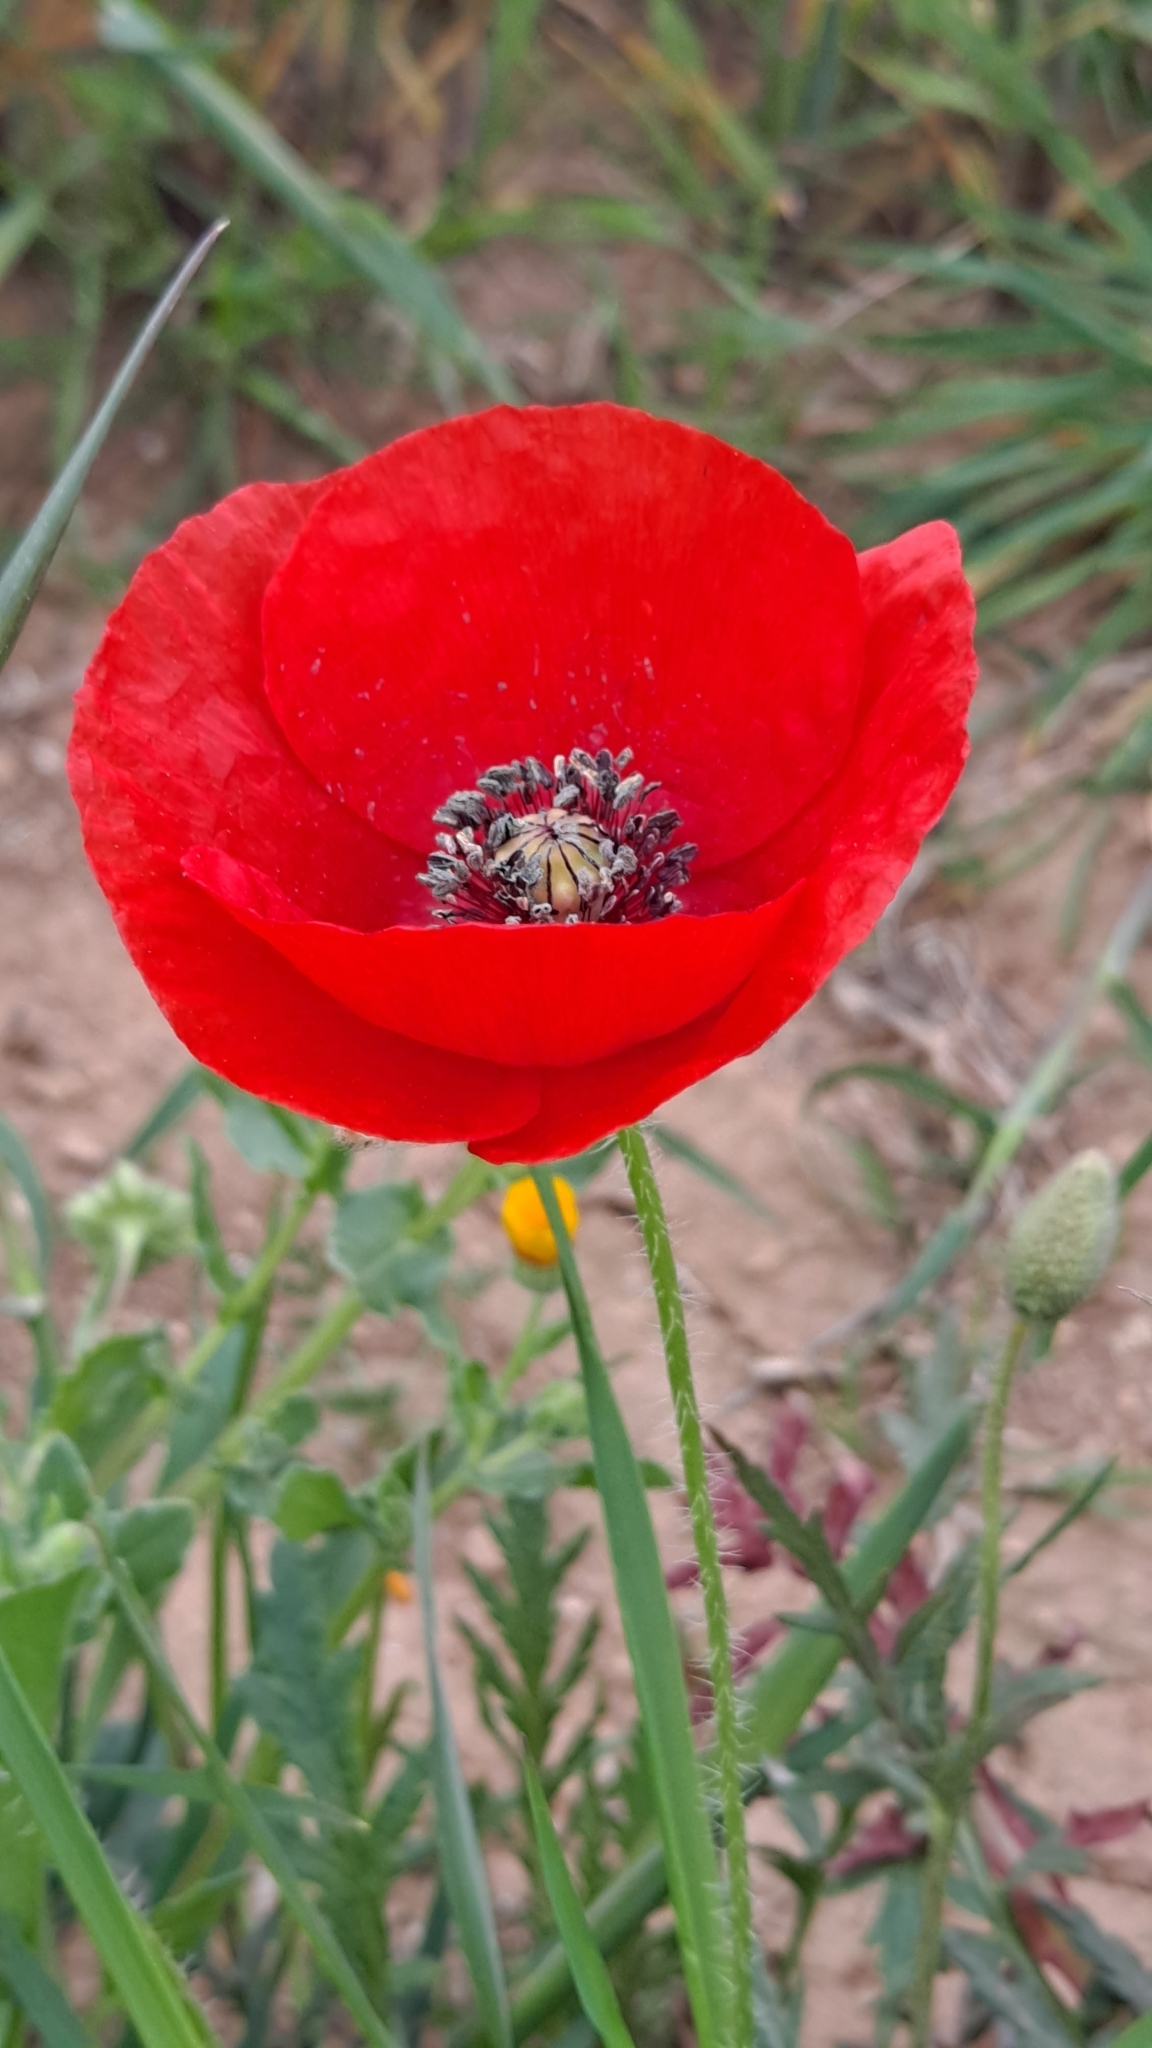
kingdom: Plantae
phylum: Tracheophyta
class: Magnoliopsida
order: Ranunculales
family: Papaveraceae
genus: Papaver
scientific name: Papaver rhoeas
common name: Corn poppy
